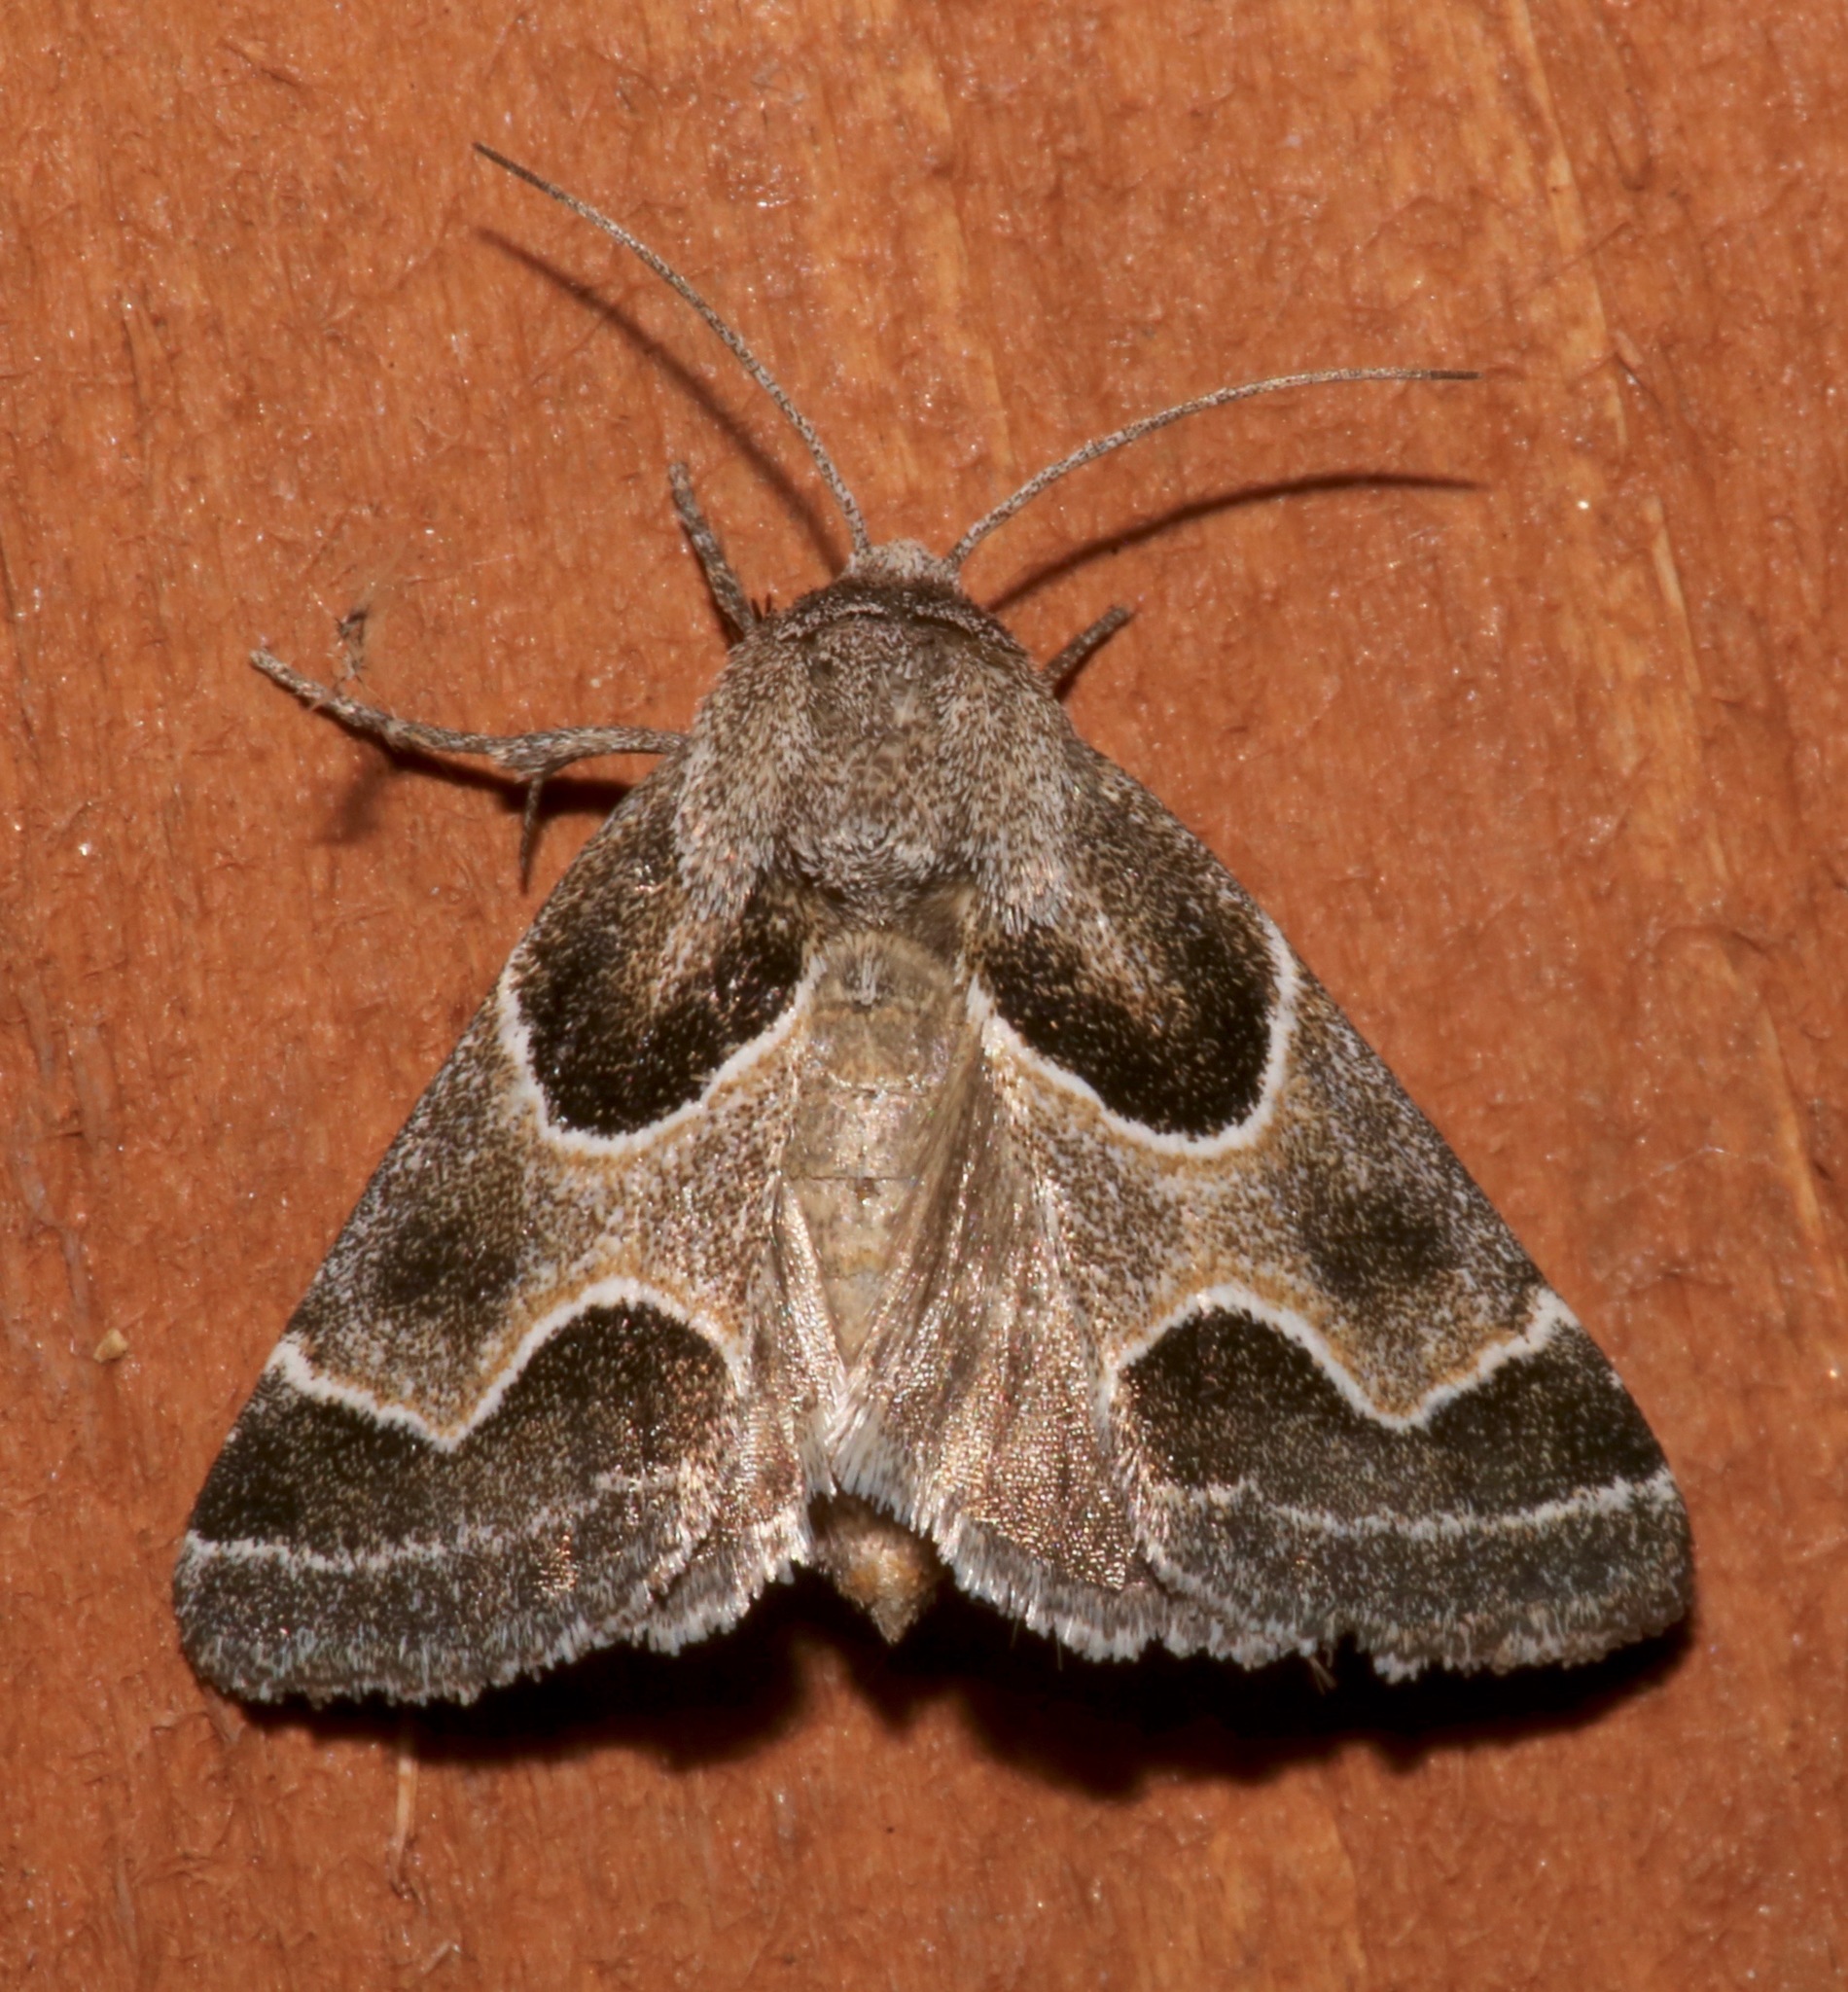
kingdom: Animalia
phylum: Arthropoda
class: Insecta
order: Lepidoptera
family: Noctuidae
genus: Schinia
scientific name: Schinia rivulosa
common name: Scarce meal-moth
